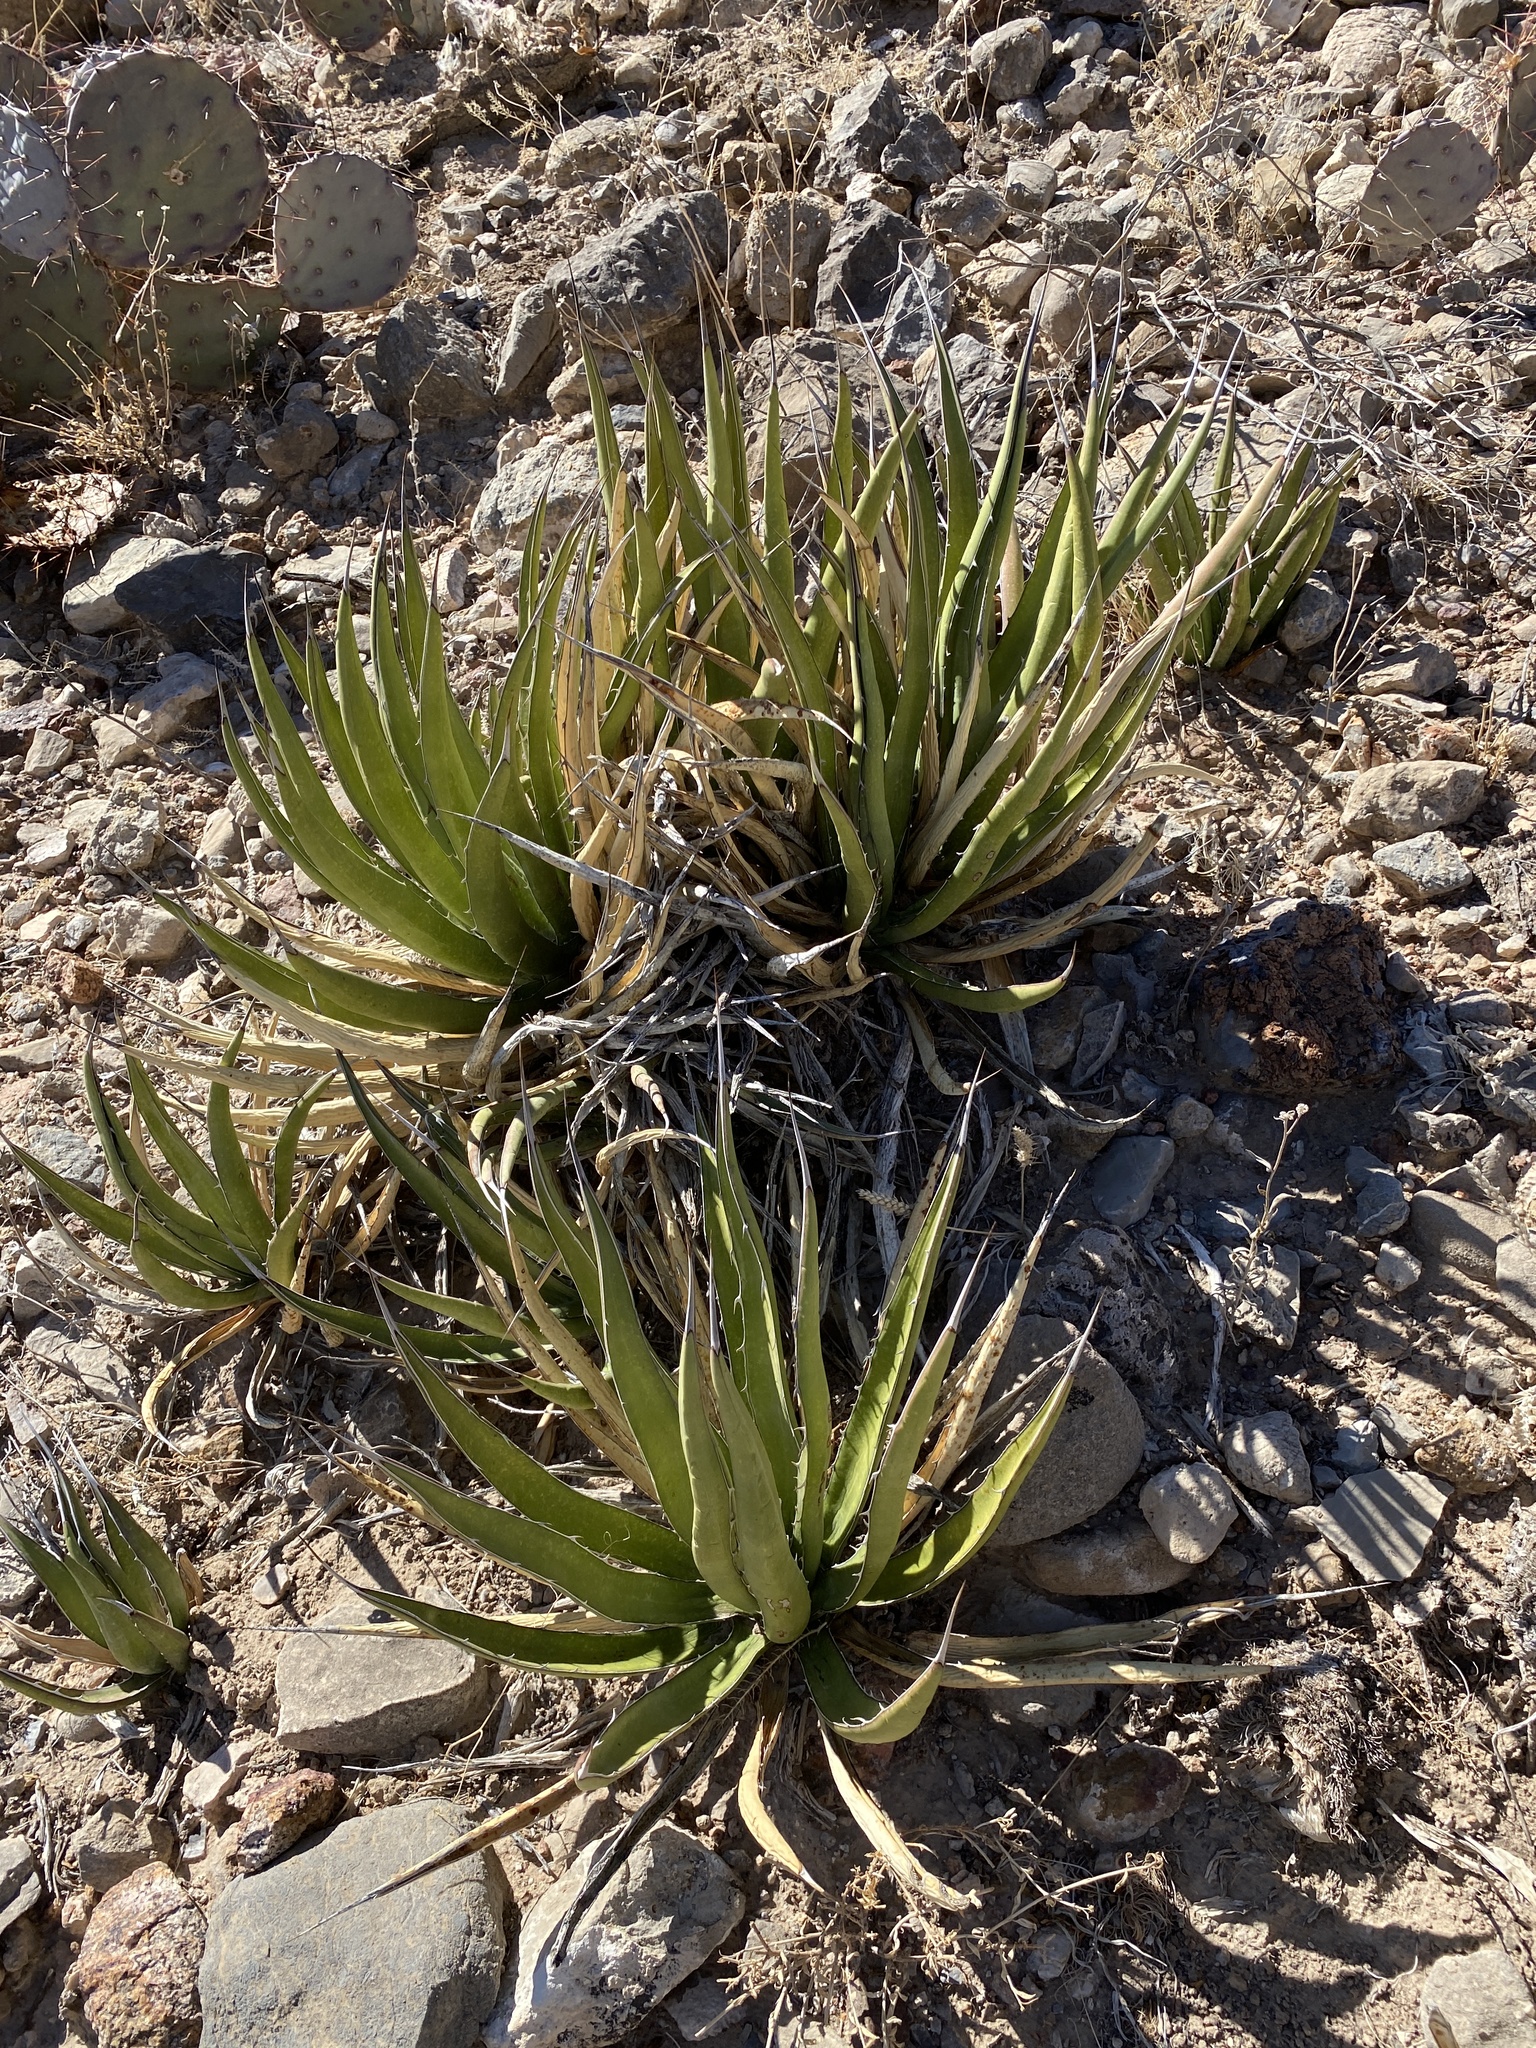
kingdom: Plantae
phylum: Tracheophyta
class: Liliopsida
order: Asparagales
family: Asparagaceae
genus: Agave
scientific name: Agave lechuguilla
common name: Lecheguilla agave
